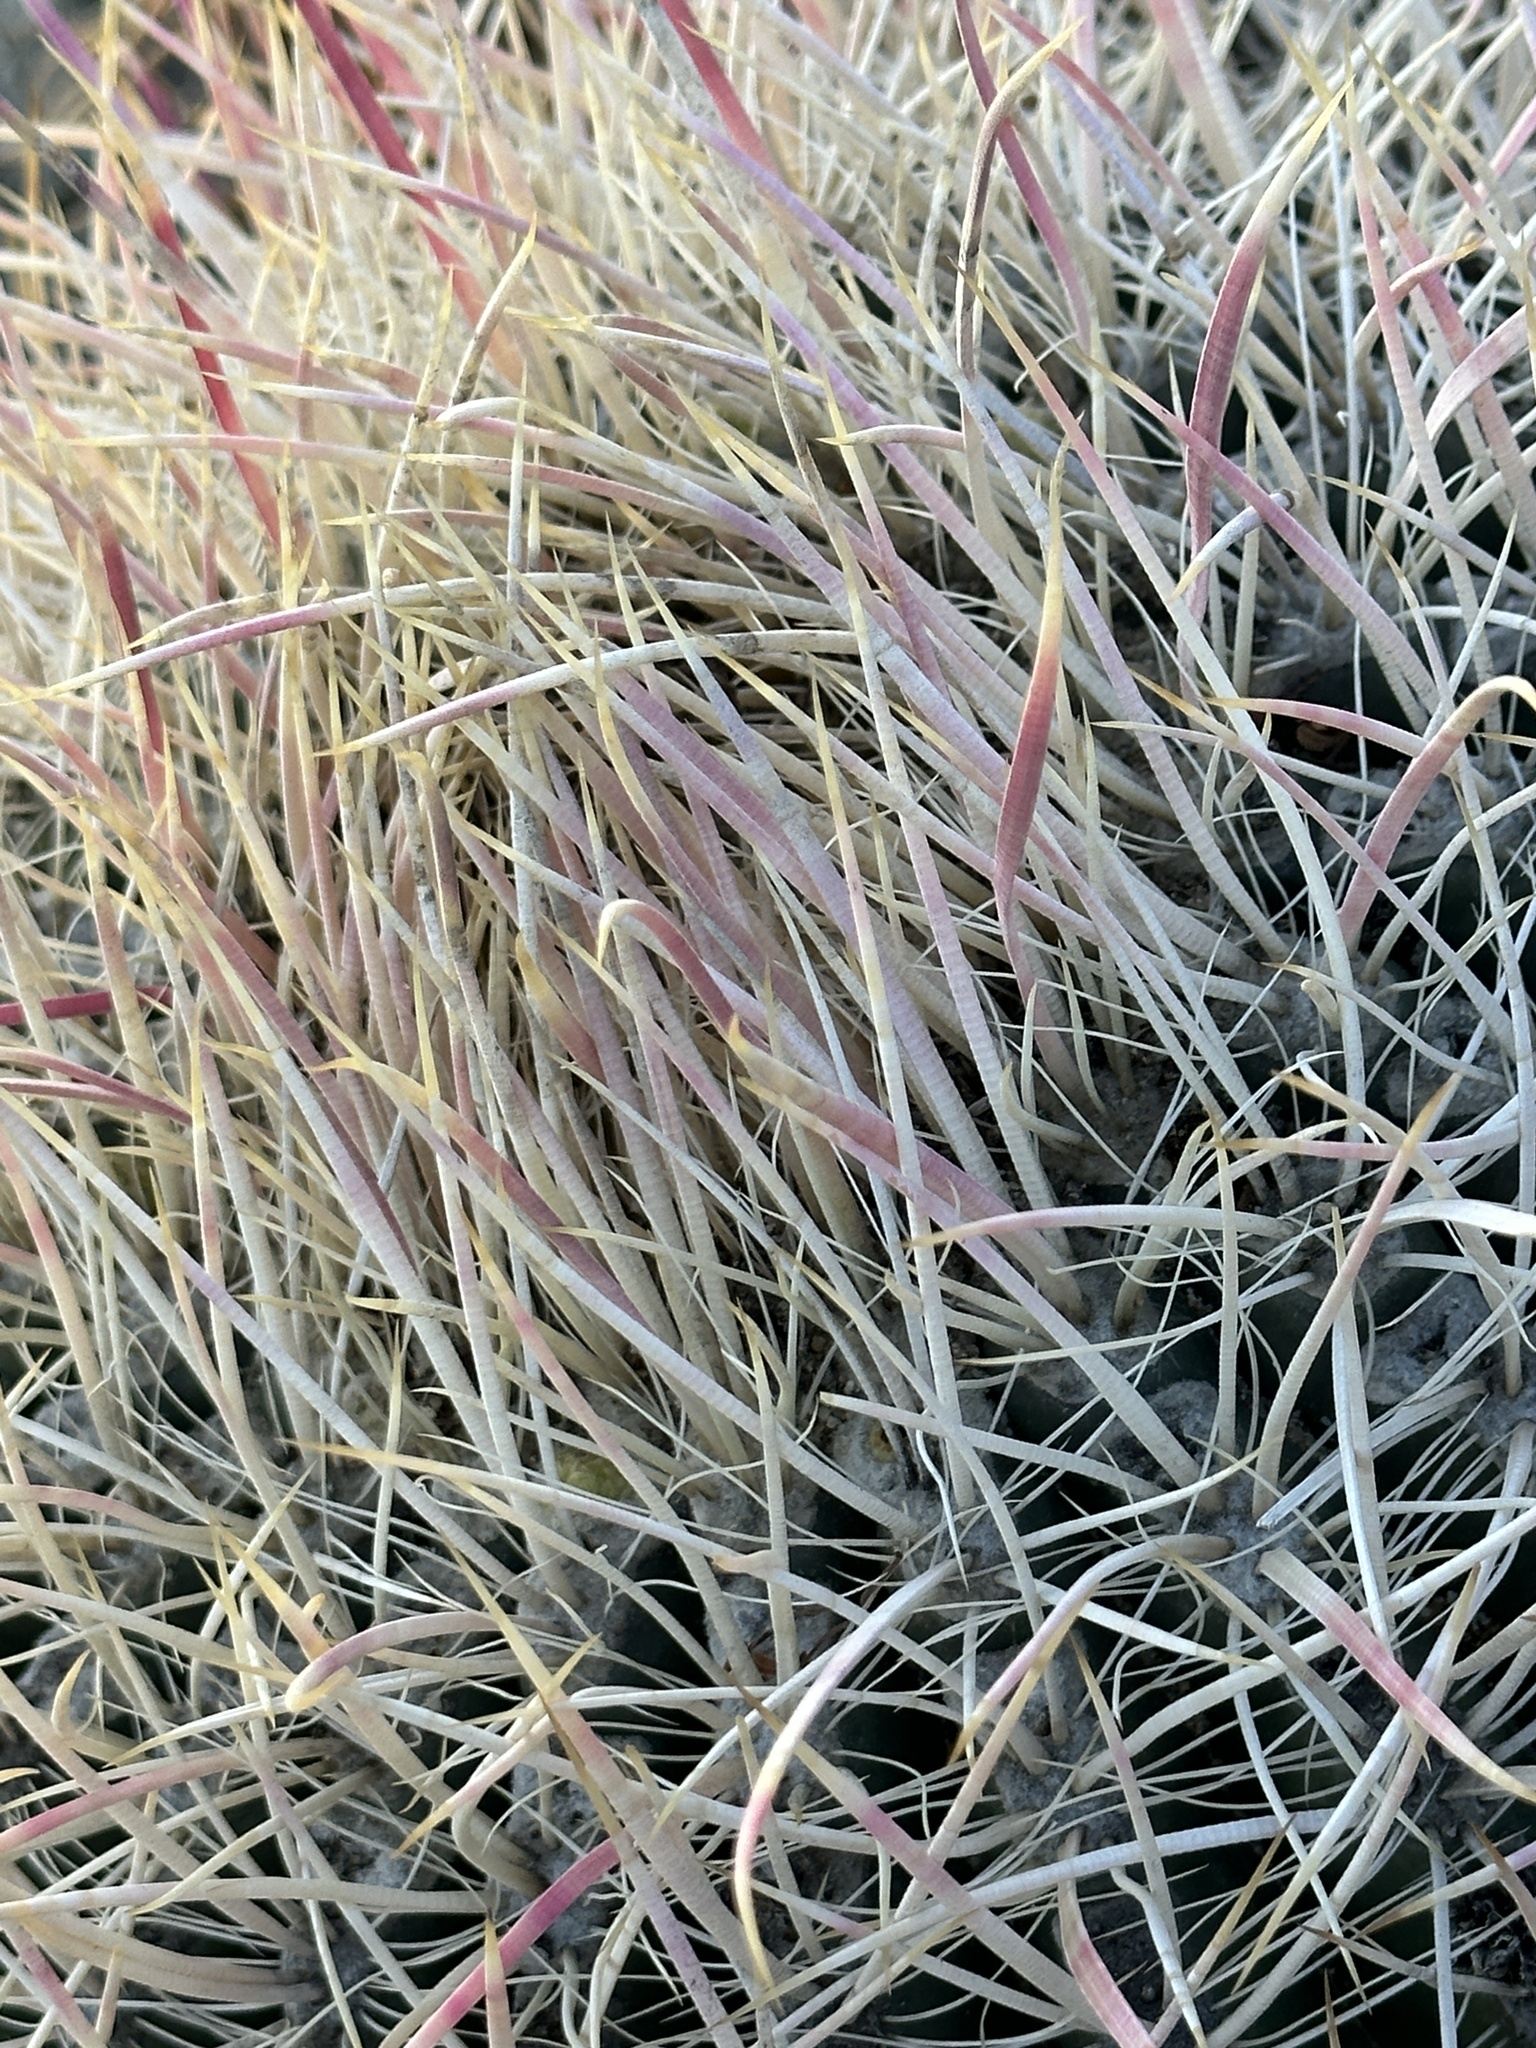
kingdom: Plantae
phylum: Tracheophyta
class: Magnoliopsida
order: Caryophyllales
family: Cactaceae
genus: Ferocactus
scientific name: Ferocactus cylindraceus
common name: California barrel cactus
